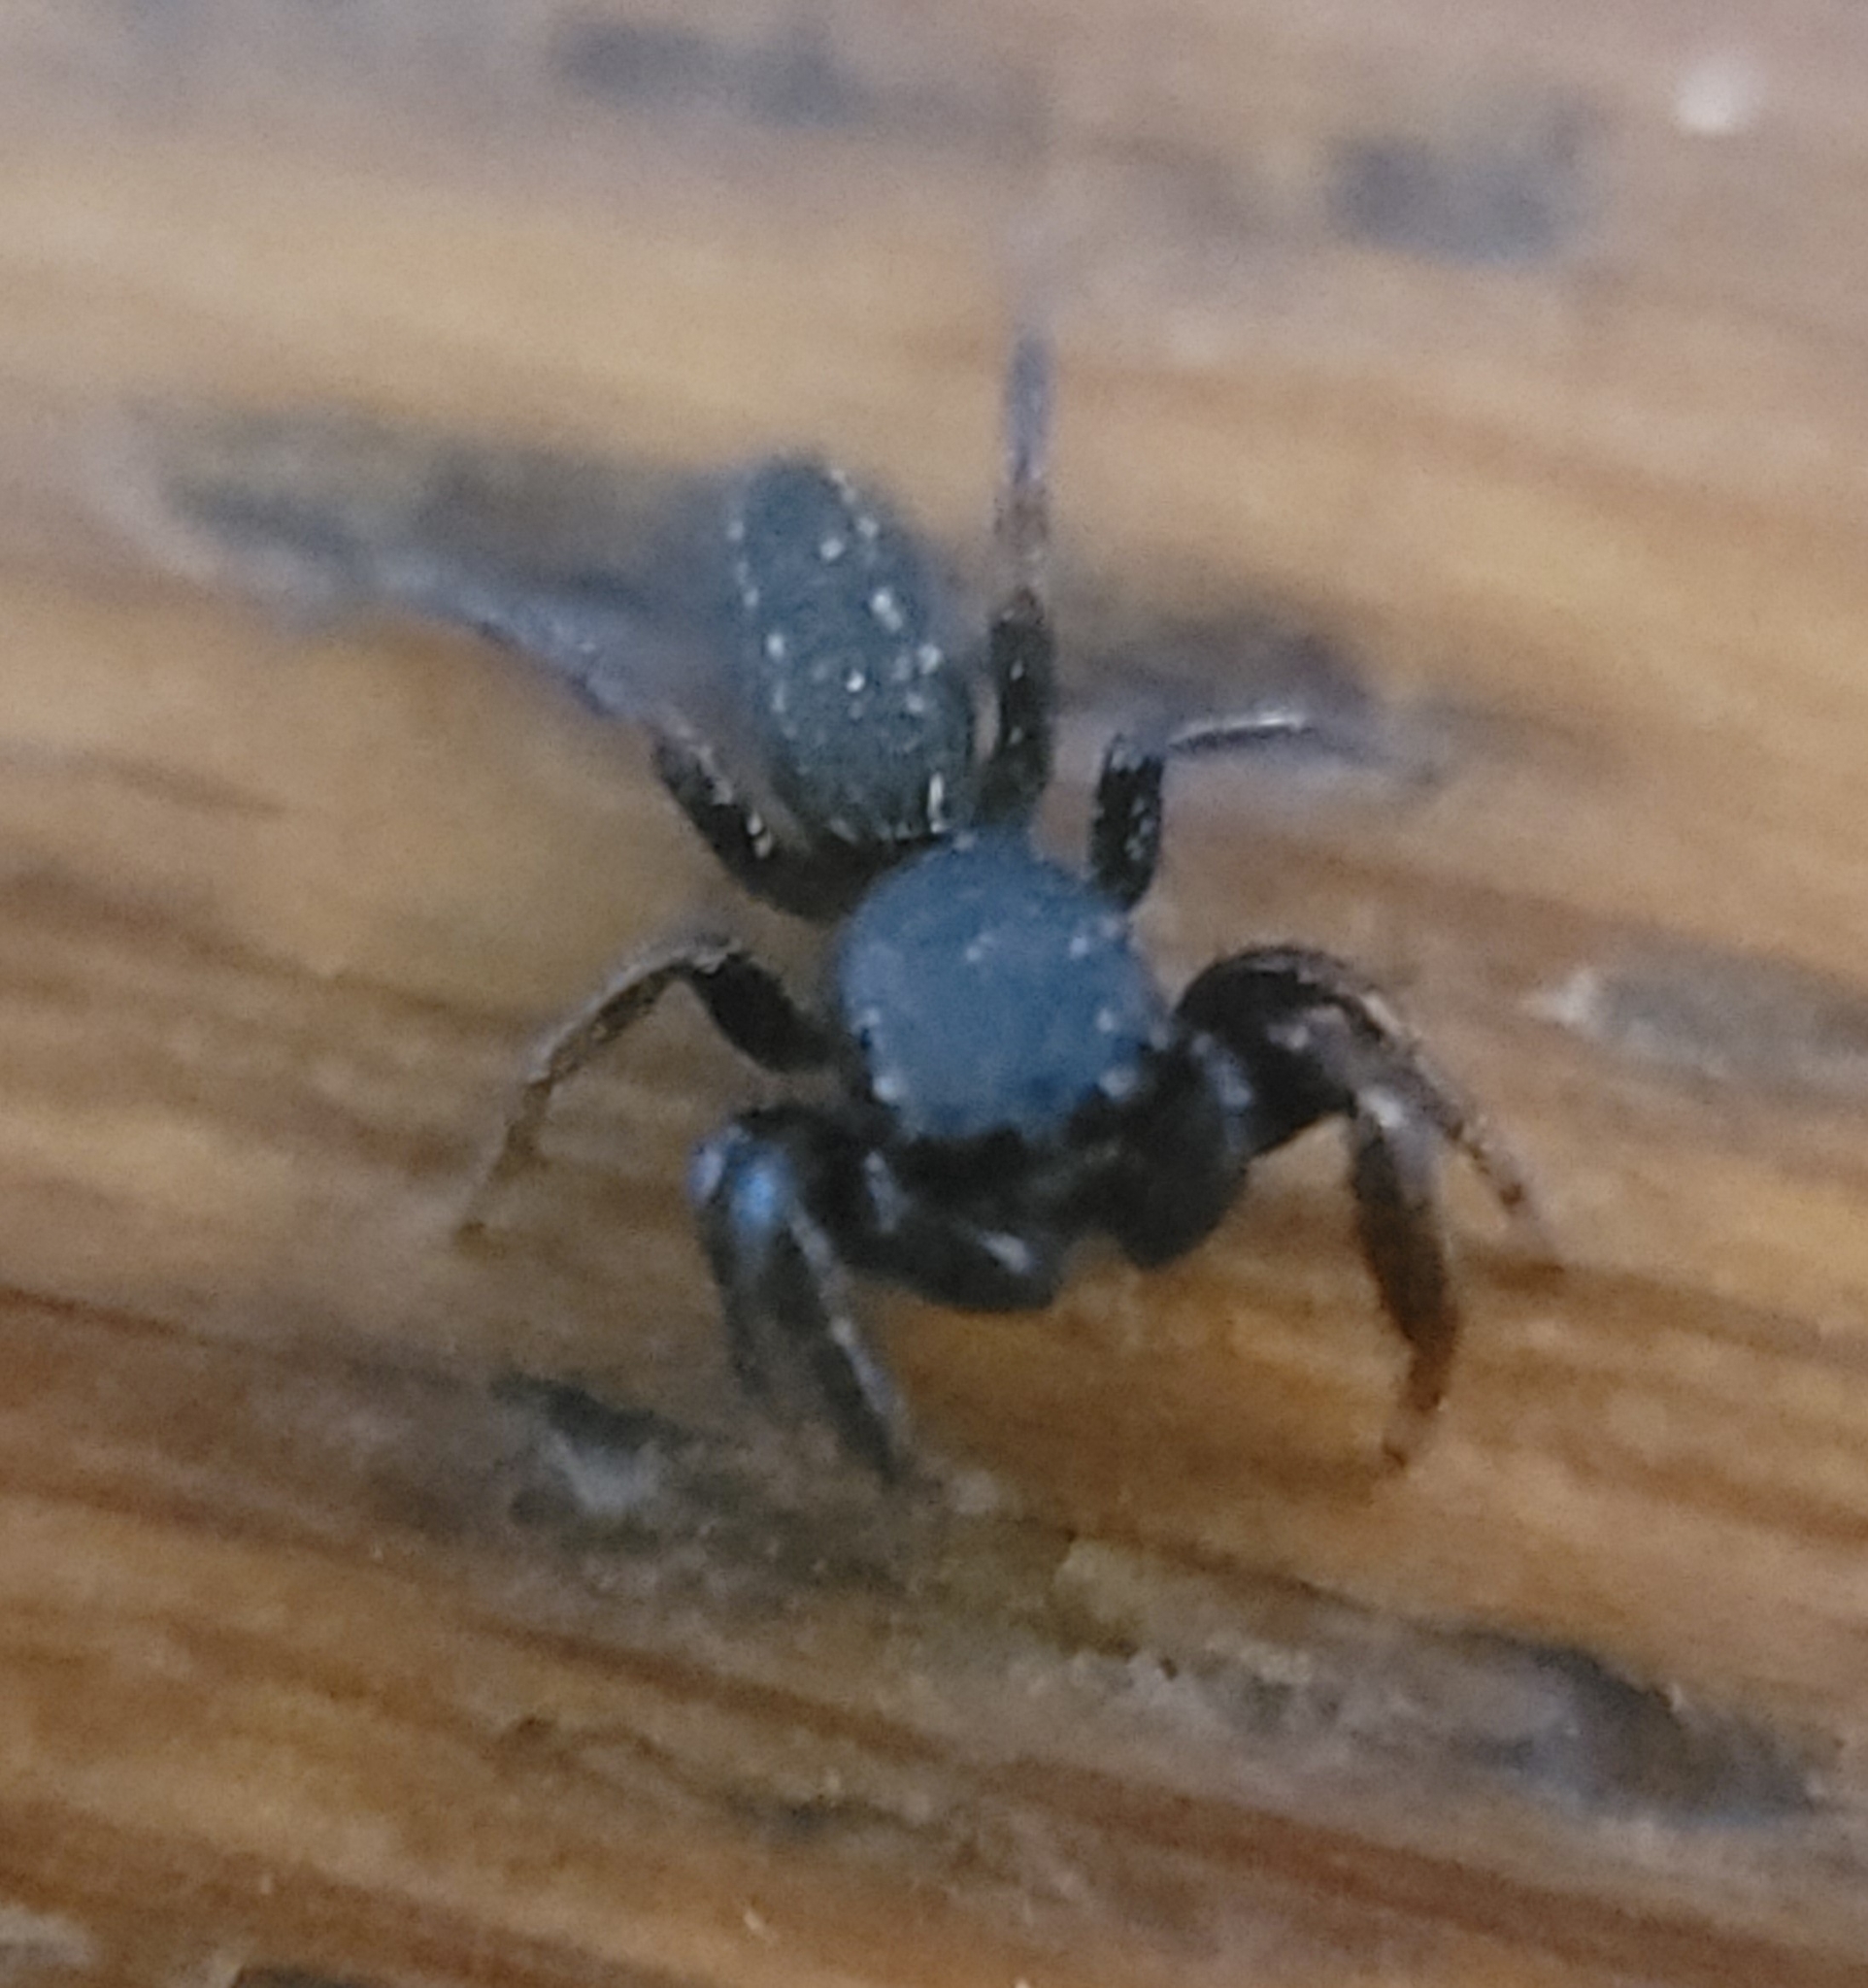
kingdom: Animalia
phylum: Arthropoda
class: Arachnida
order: Araneae
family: Salticidae
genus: Metacyrba
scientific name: Metacyrba taeniola
